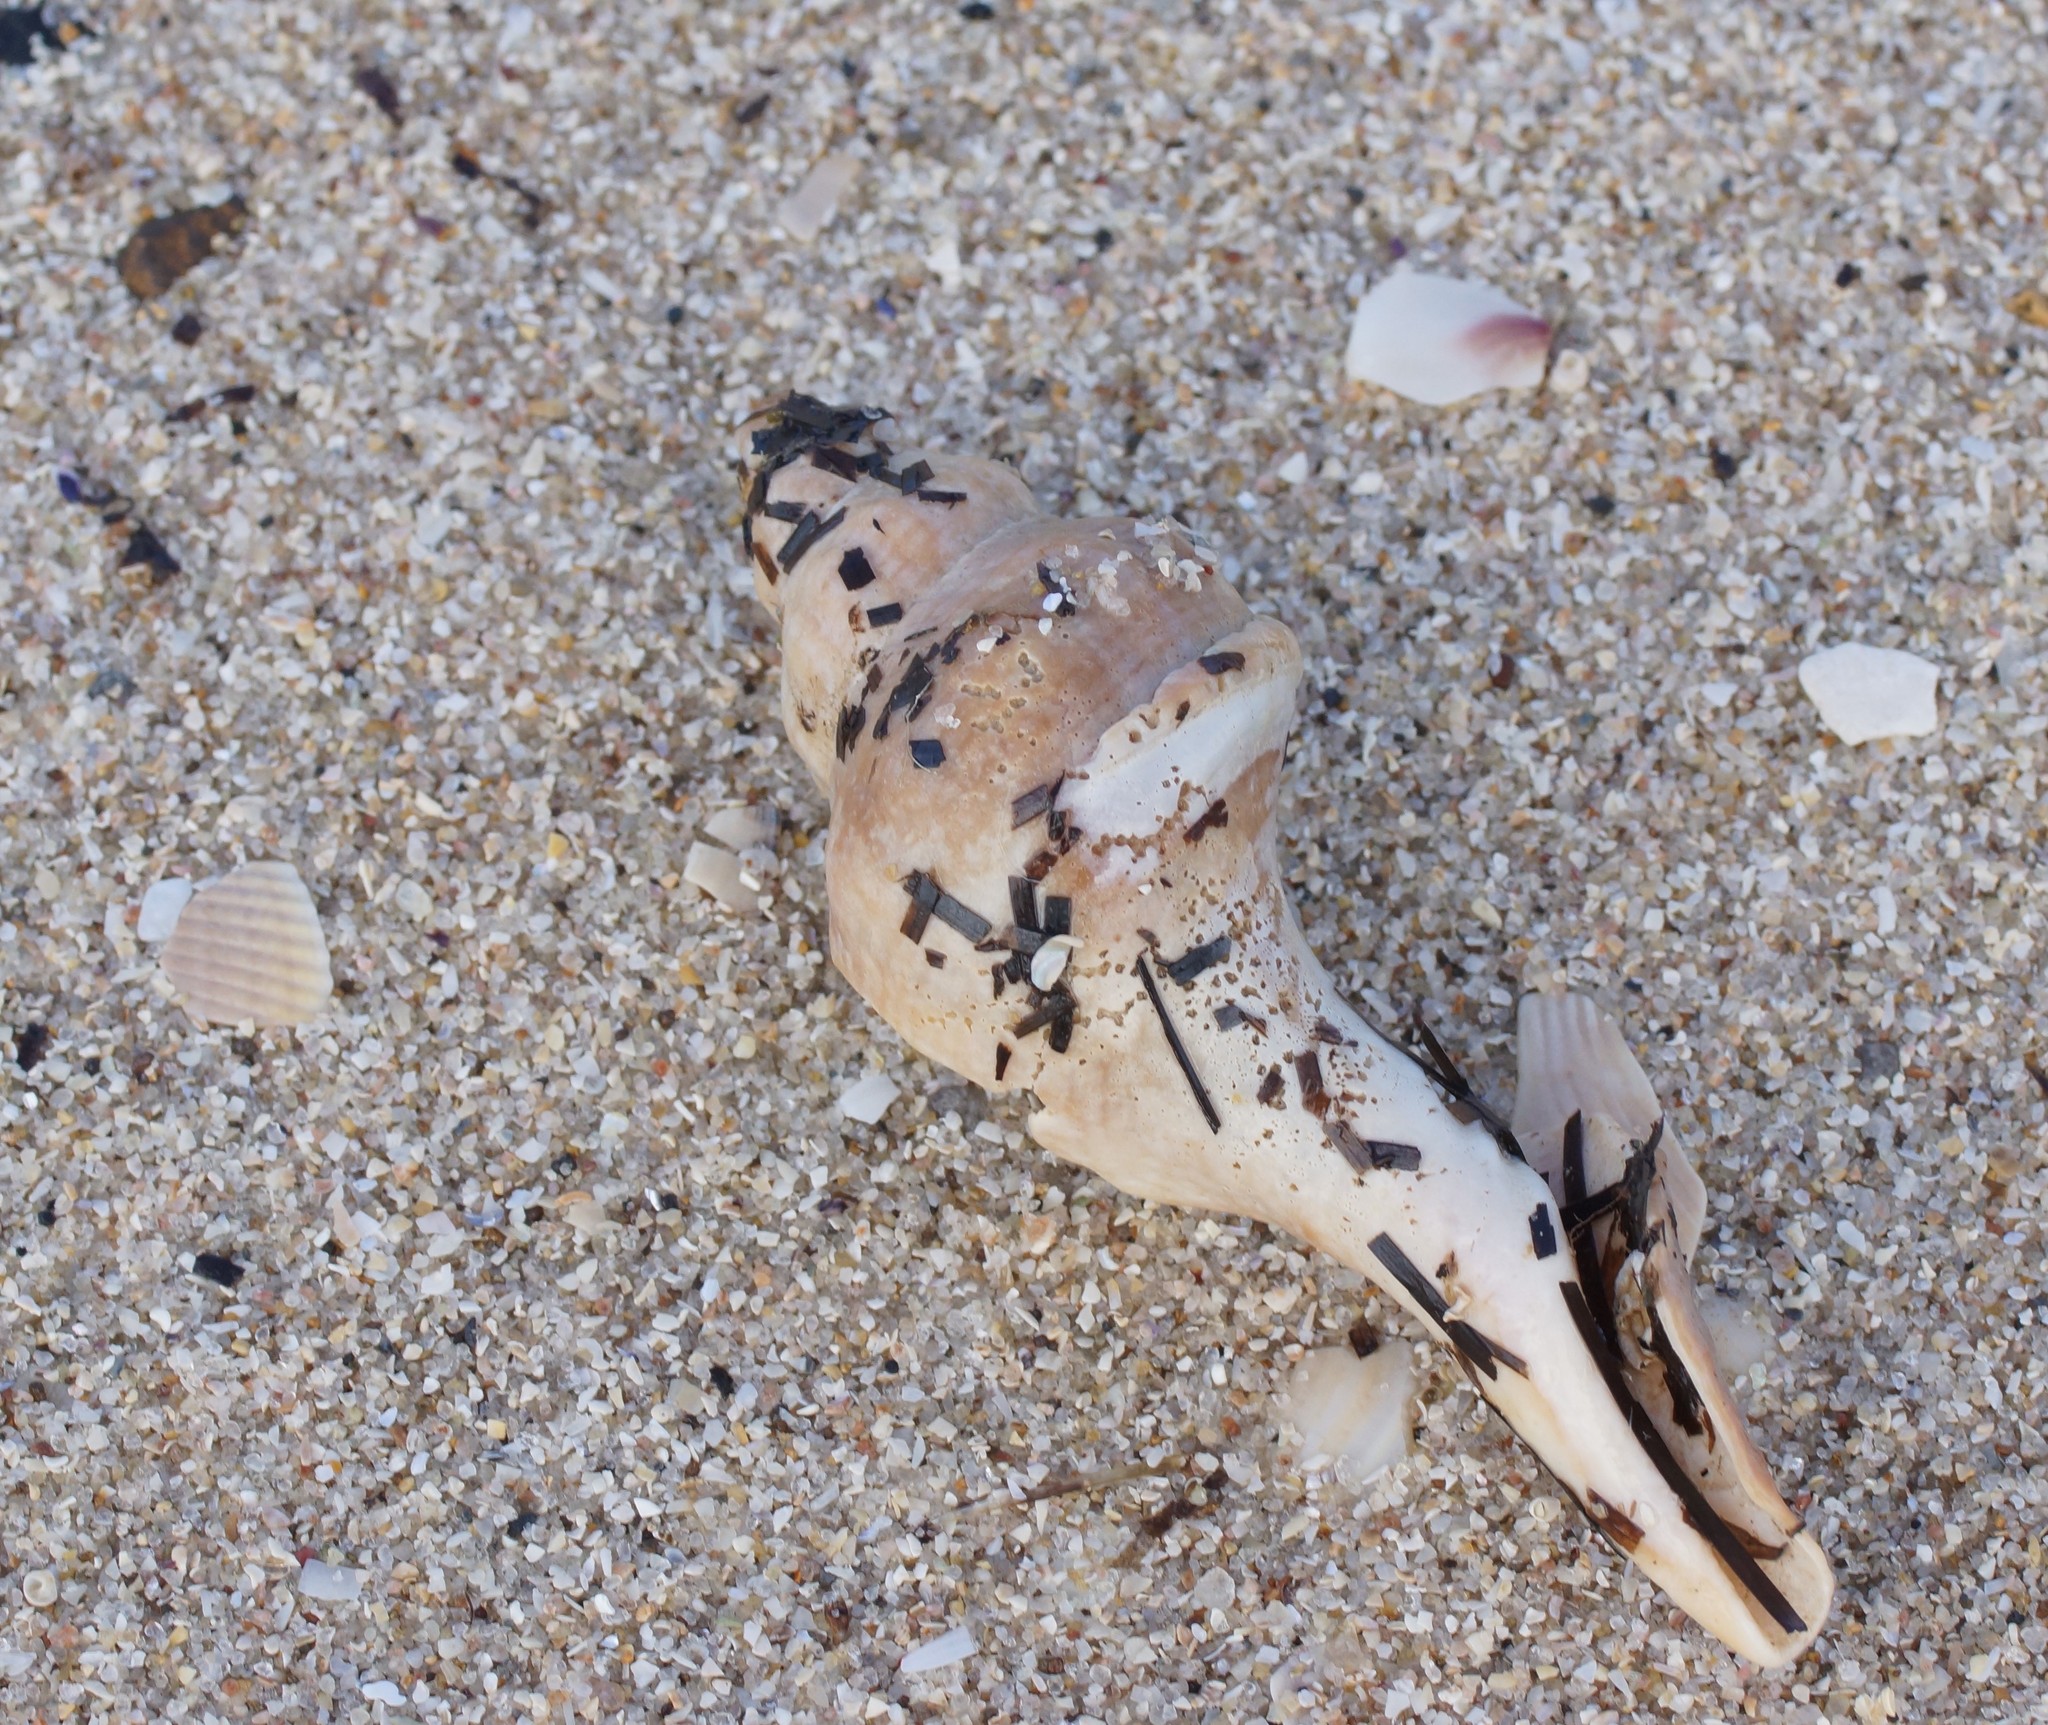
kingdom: Animalia
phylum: Mollusca
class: Gastropoda
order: Neogastropoda
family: Fasciolariidae
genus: Australaria
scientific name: Australaria australasia
